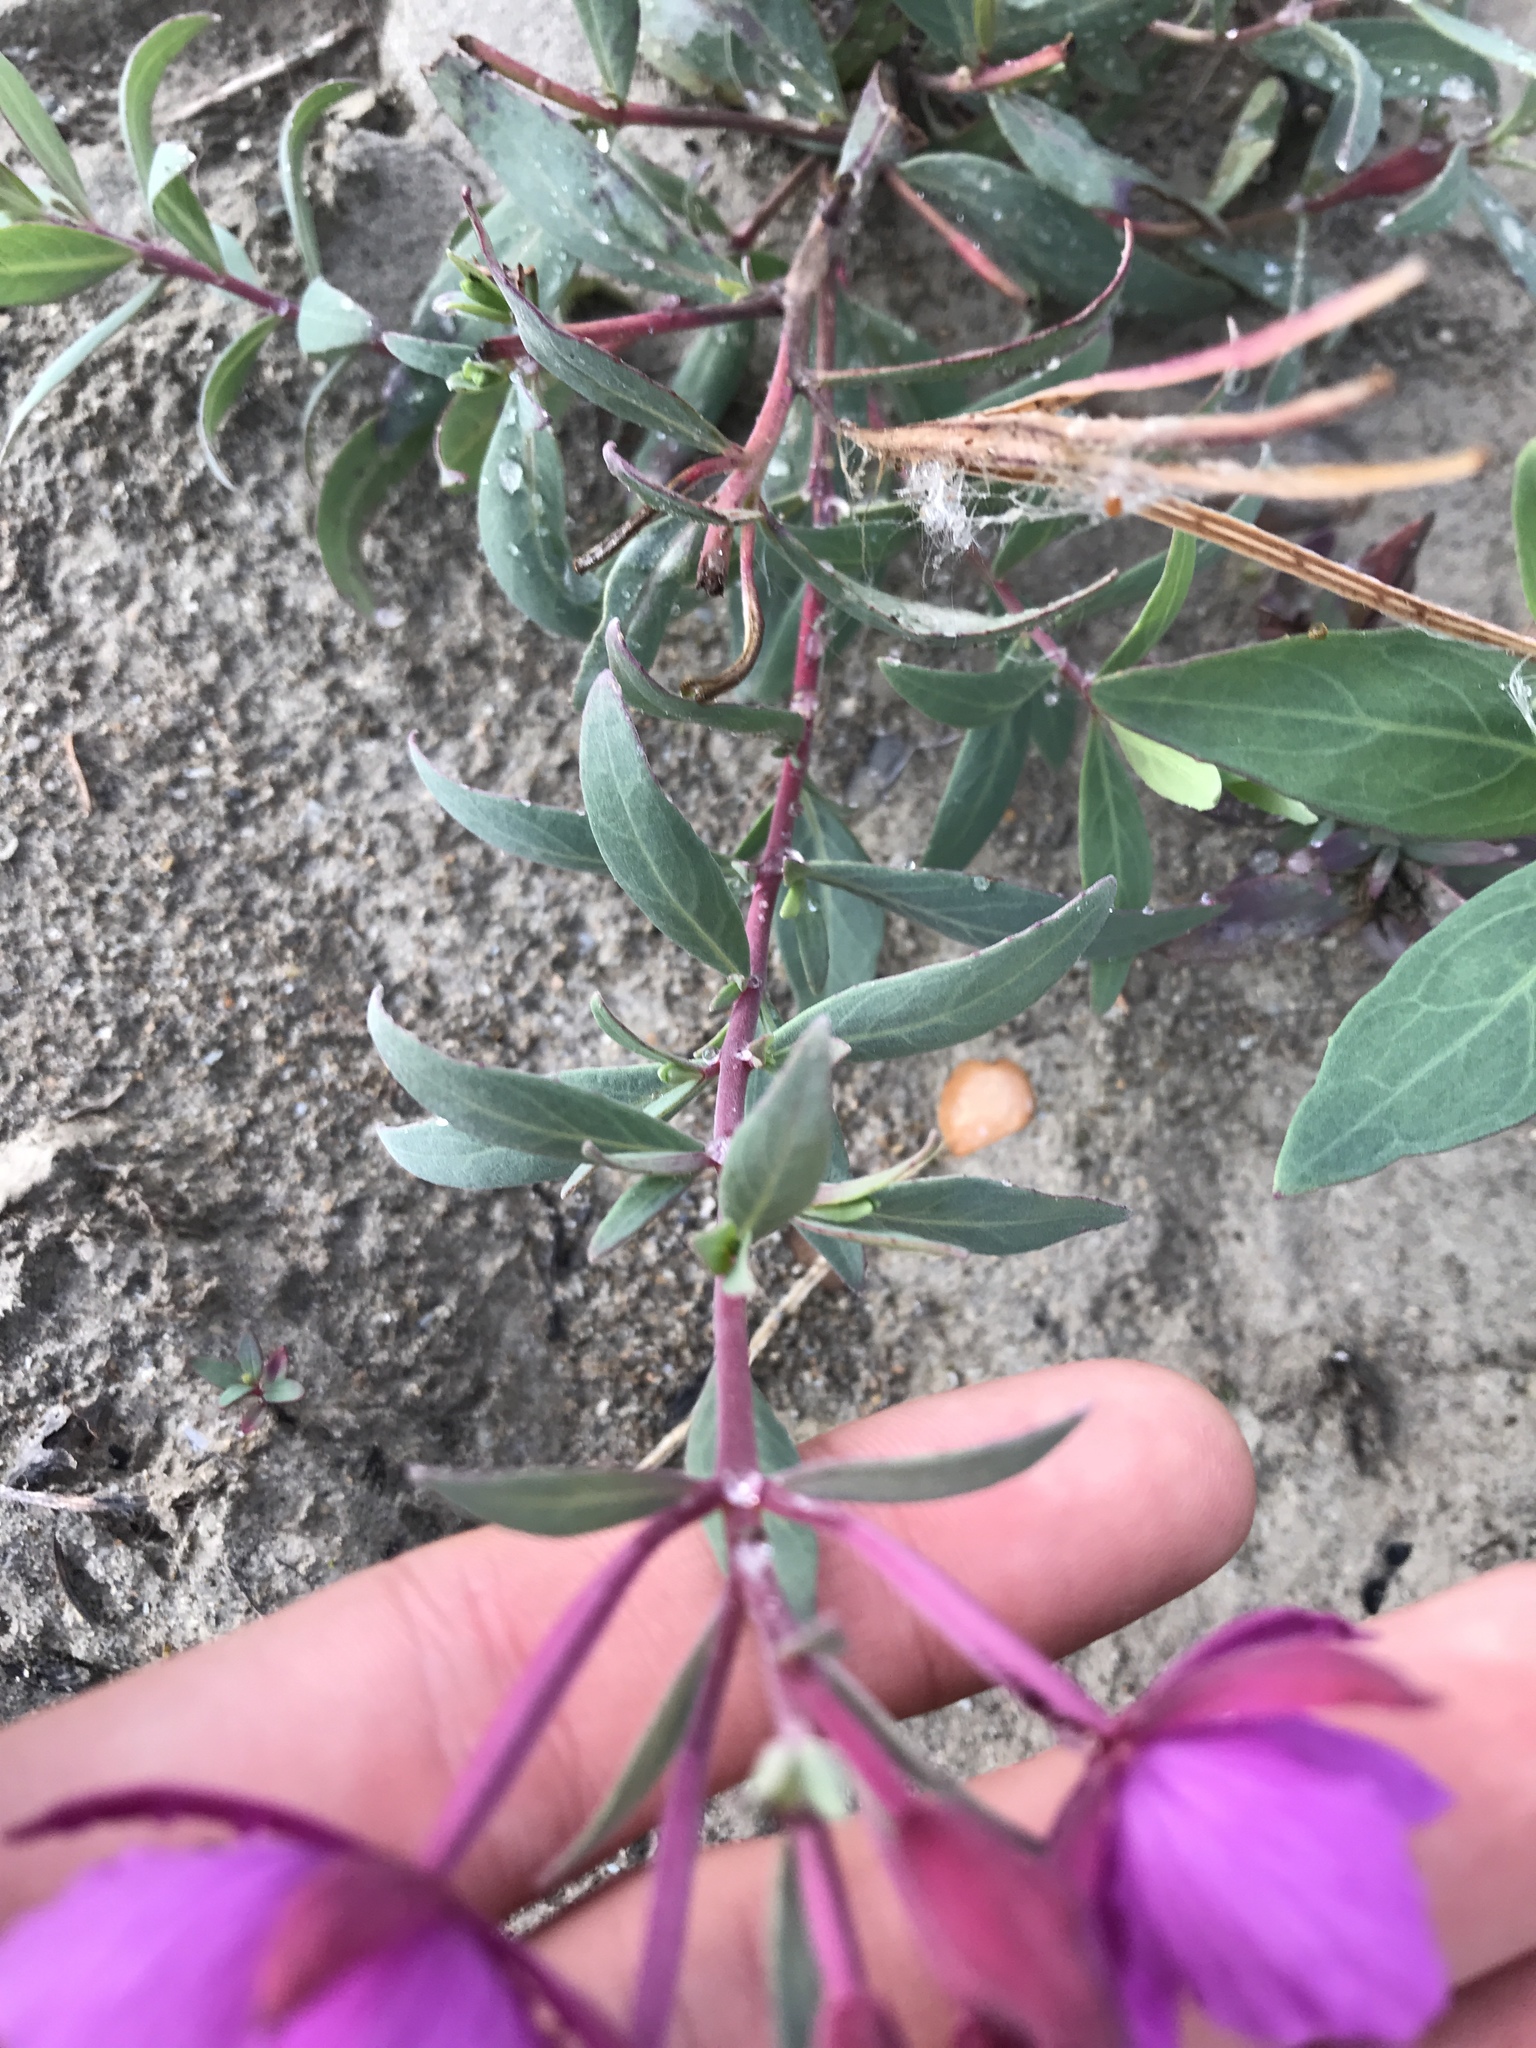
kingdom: Plantae
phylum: Tracheophyta
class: Magnoliopsida
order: Myrtales
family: Onagraceae
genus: Chamaenerion
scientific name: Chamaenerion latifolium
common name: Dwarf fireweed
